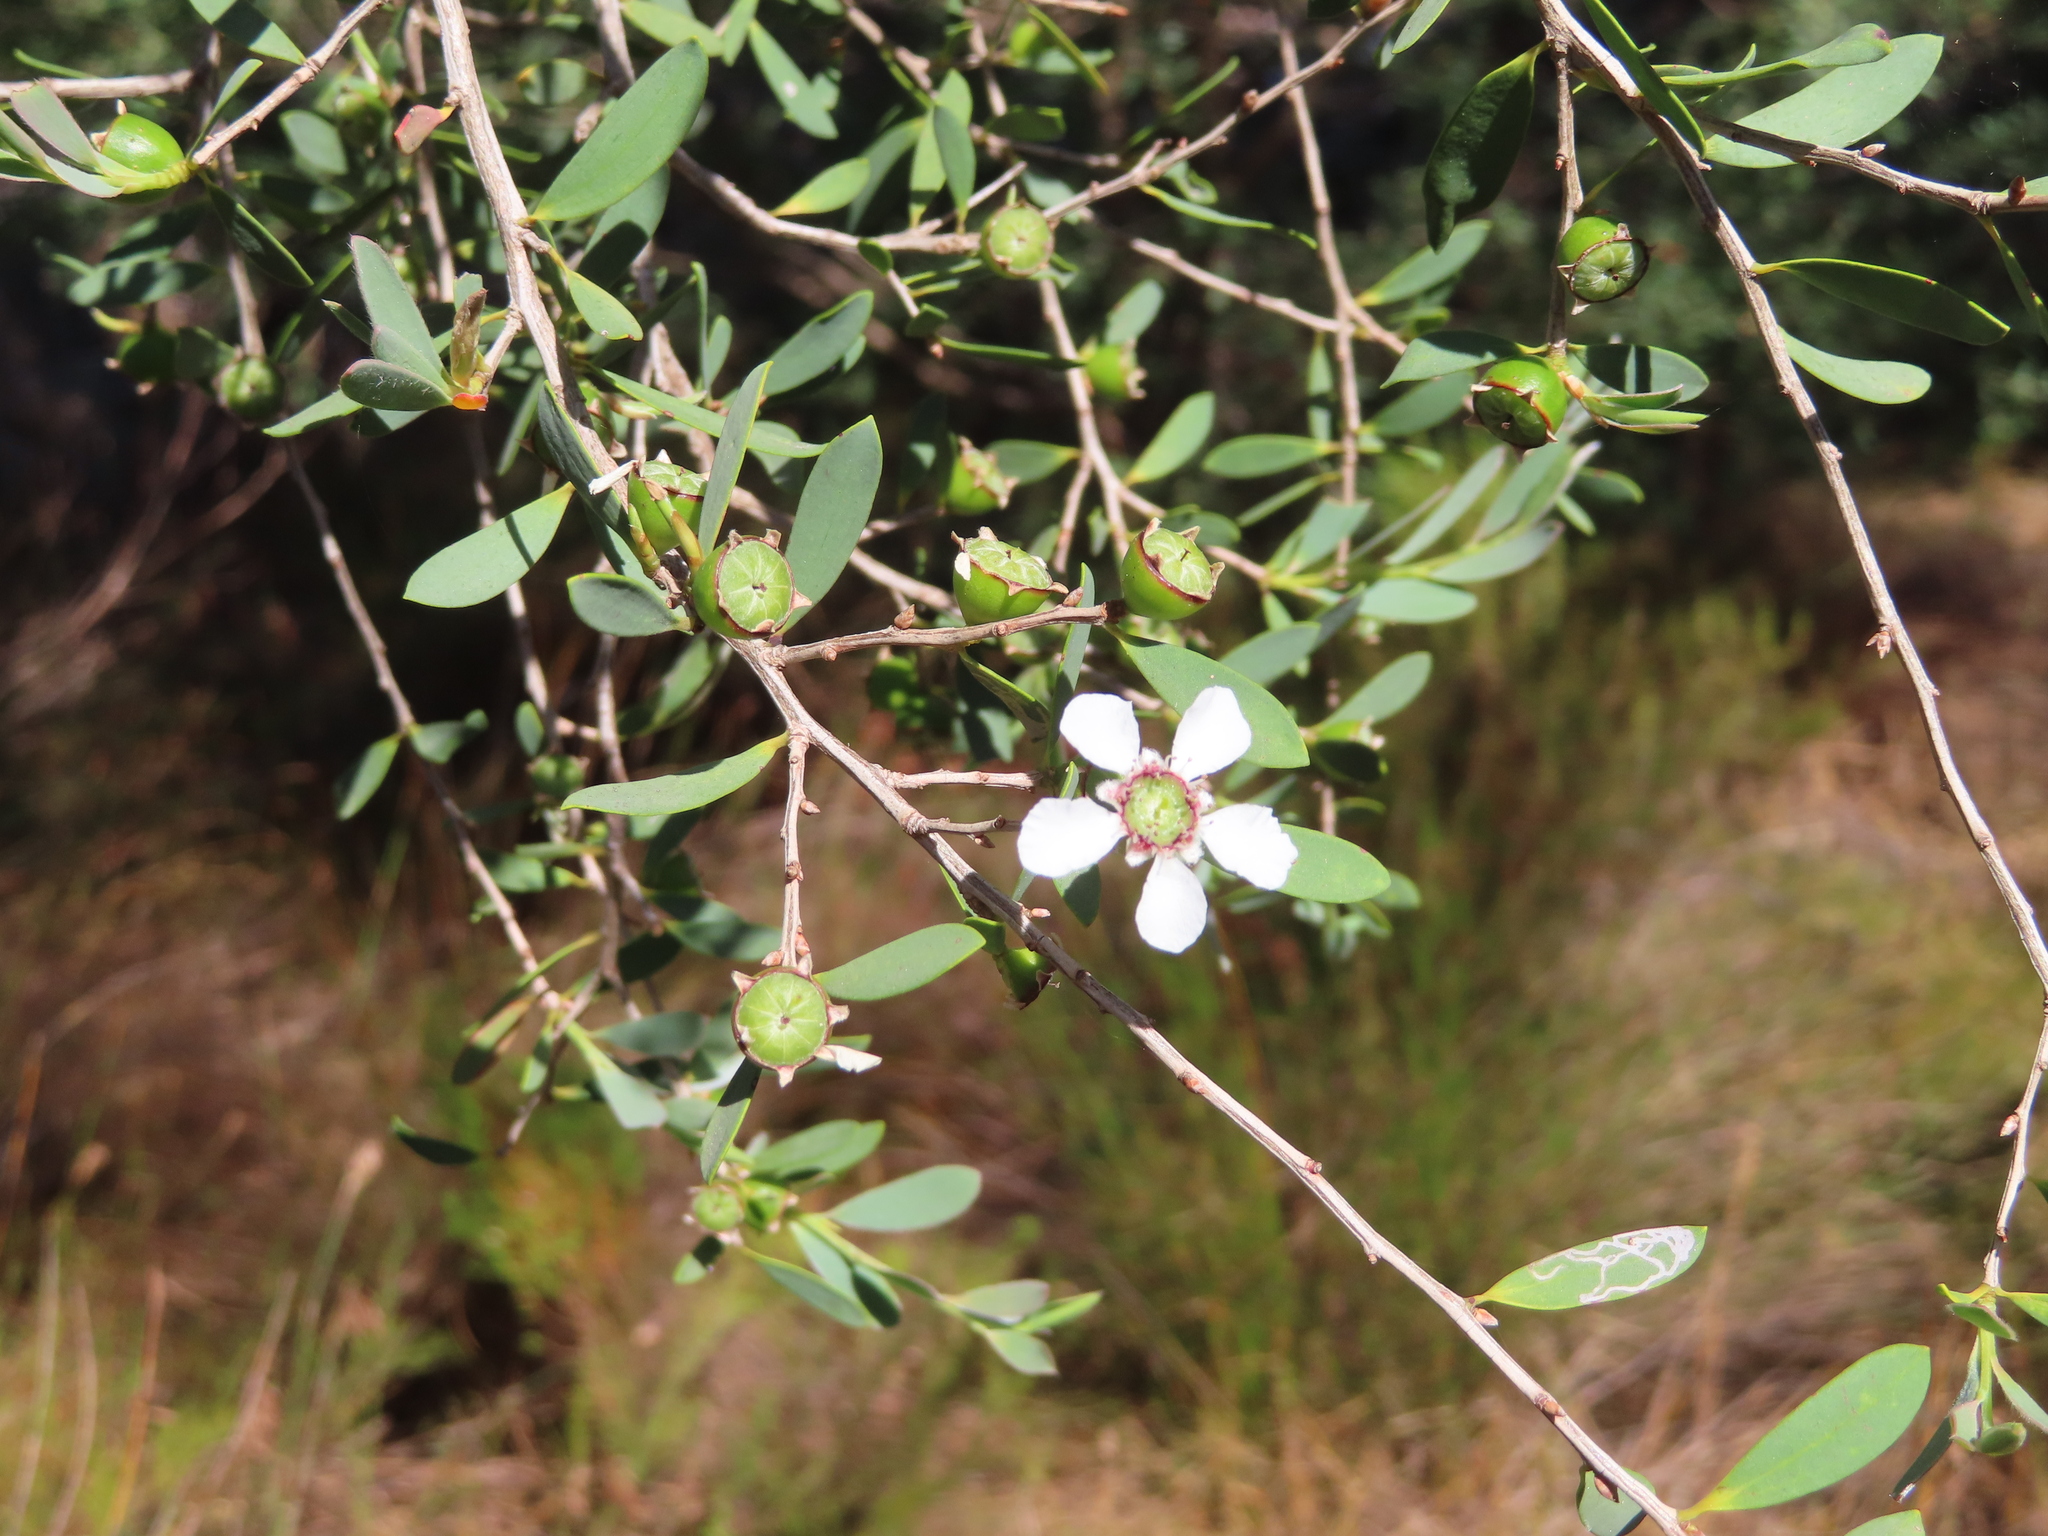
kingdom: Plantae
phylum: Tracheophyta
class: Magnoliopsida
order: Myrtales
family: Myrtaceae
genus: Leptospermum
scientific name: Leptospermum laevigatum
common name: Australian teatree
